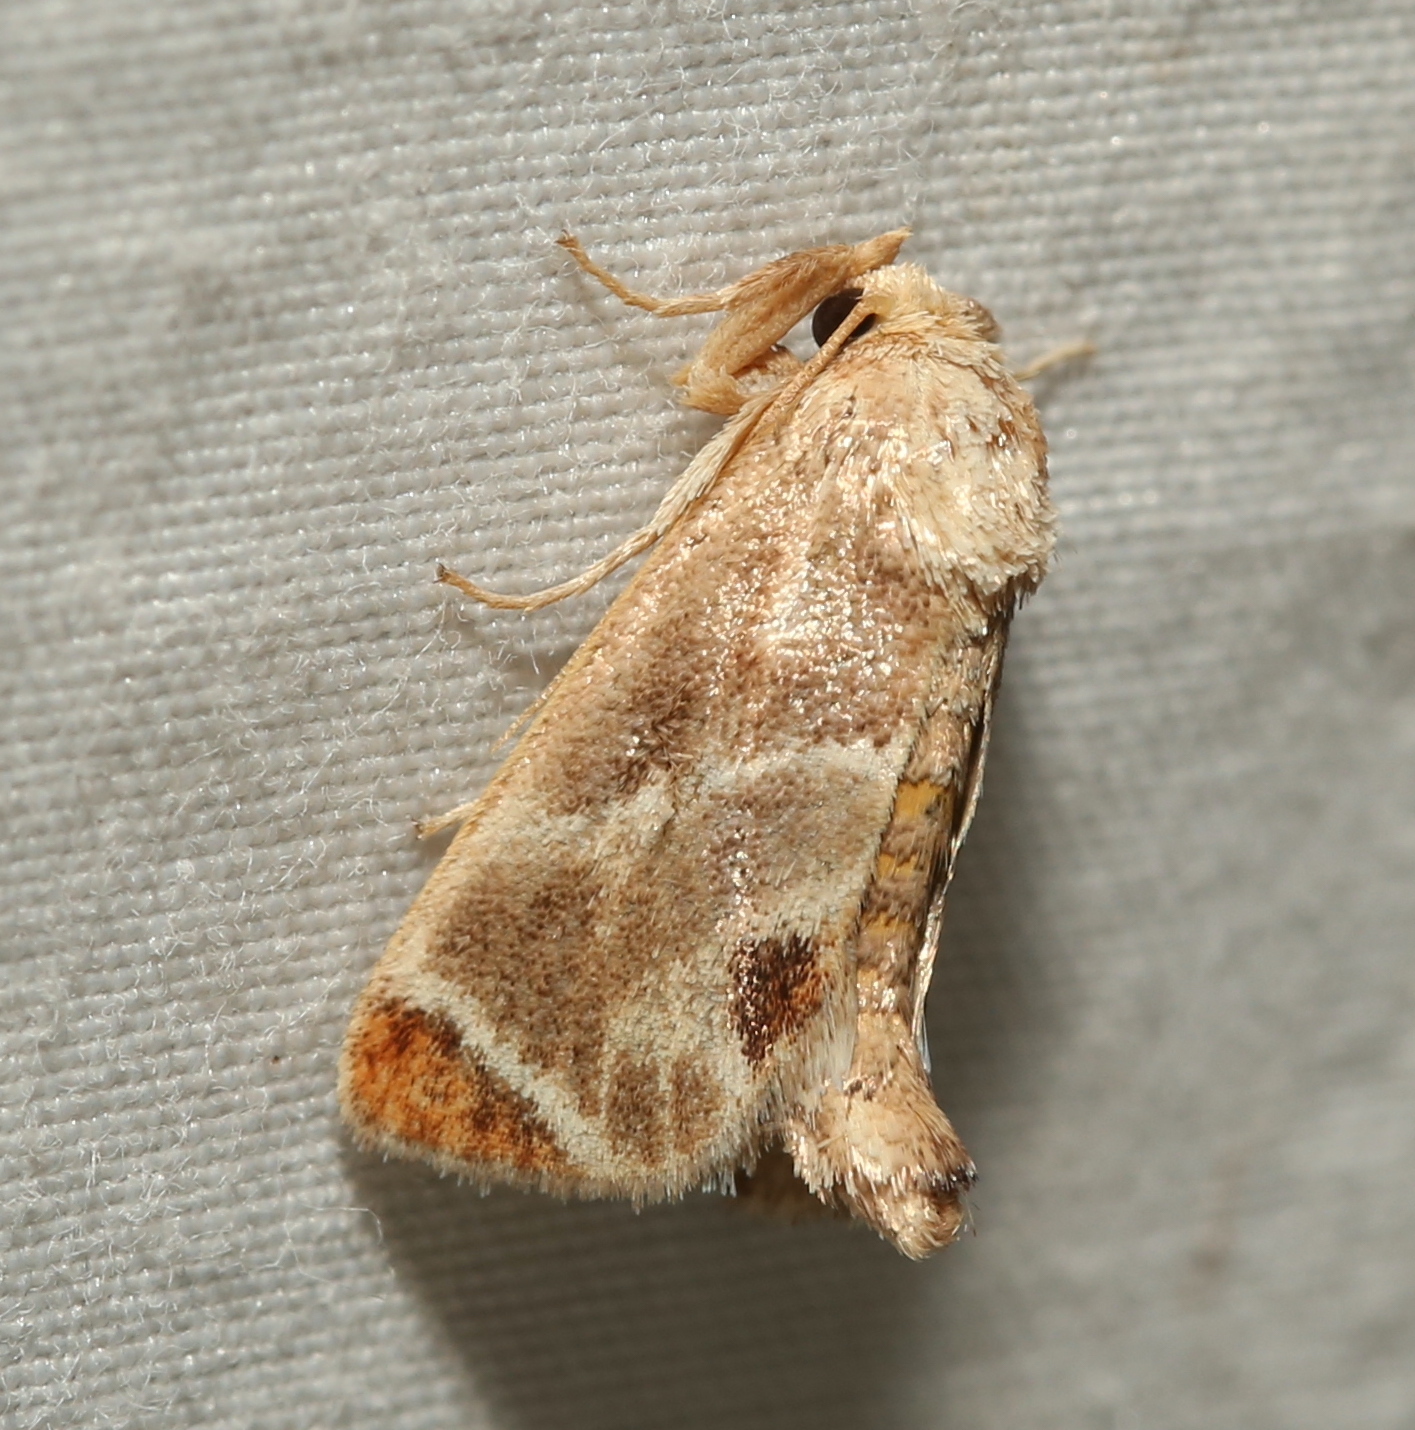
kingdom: Animalia
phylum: Arthropoda
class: Insecta
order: Lepidoptera
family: Limacodidae
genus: Apoda
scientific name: Apoda biguttata
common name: Shagreened slug moth
